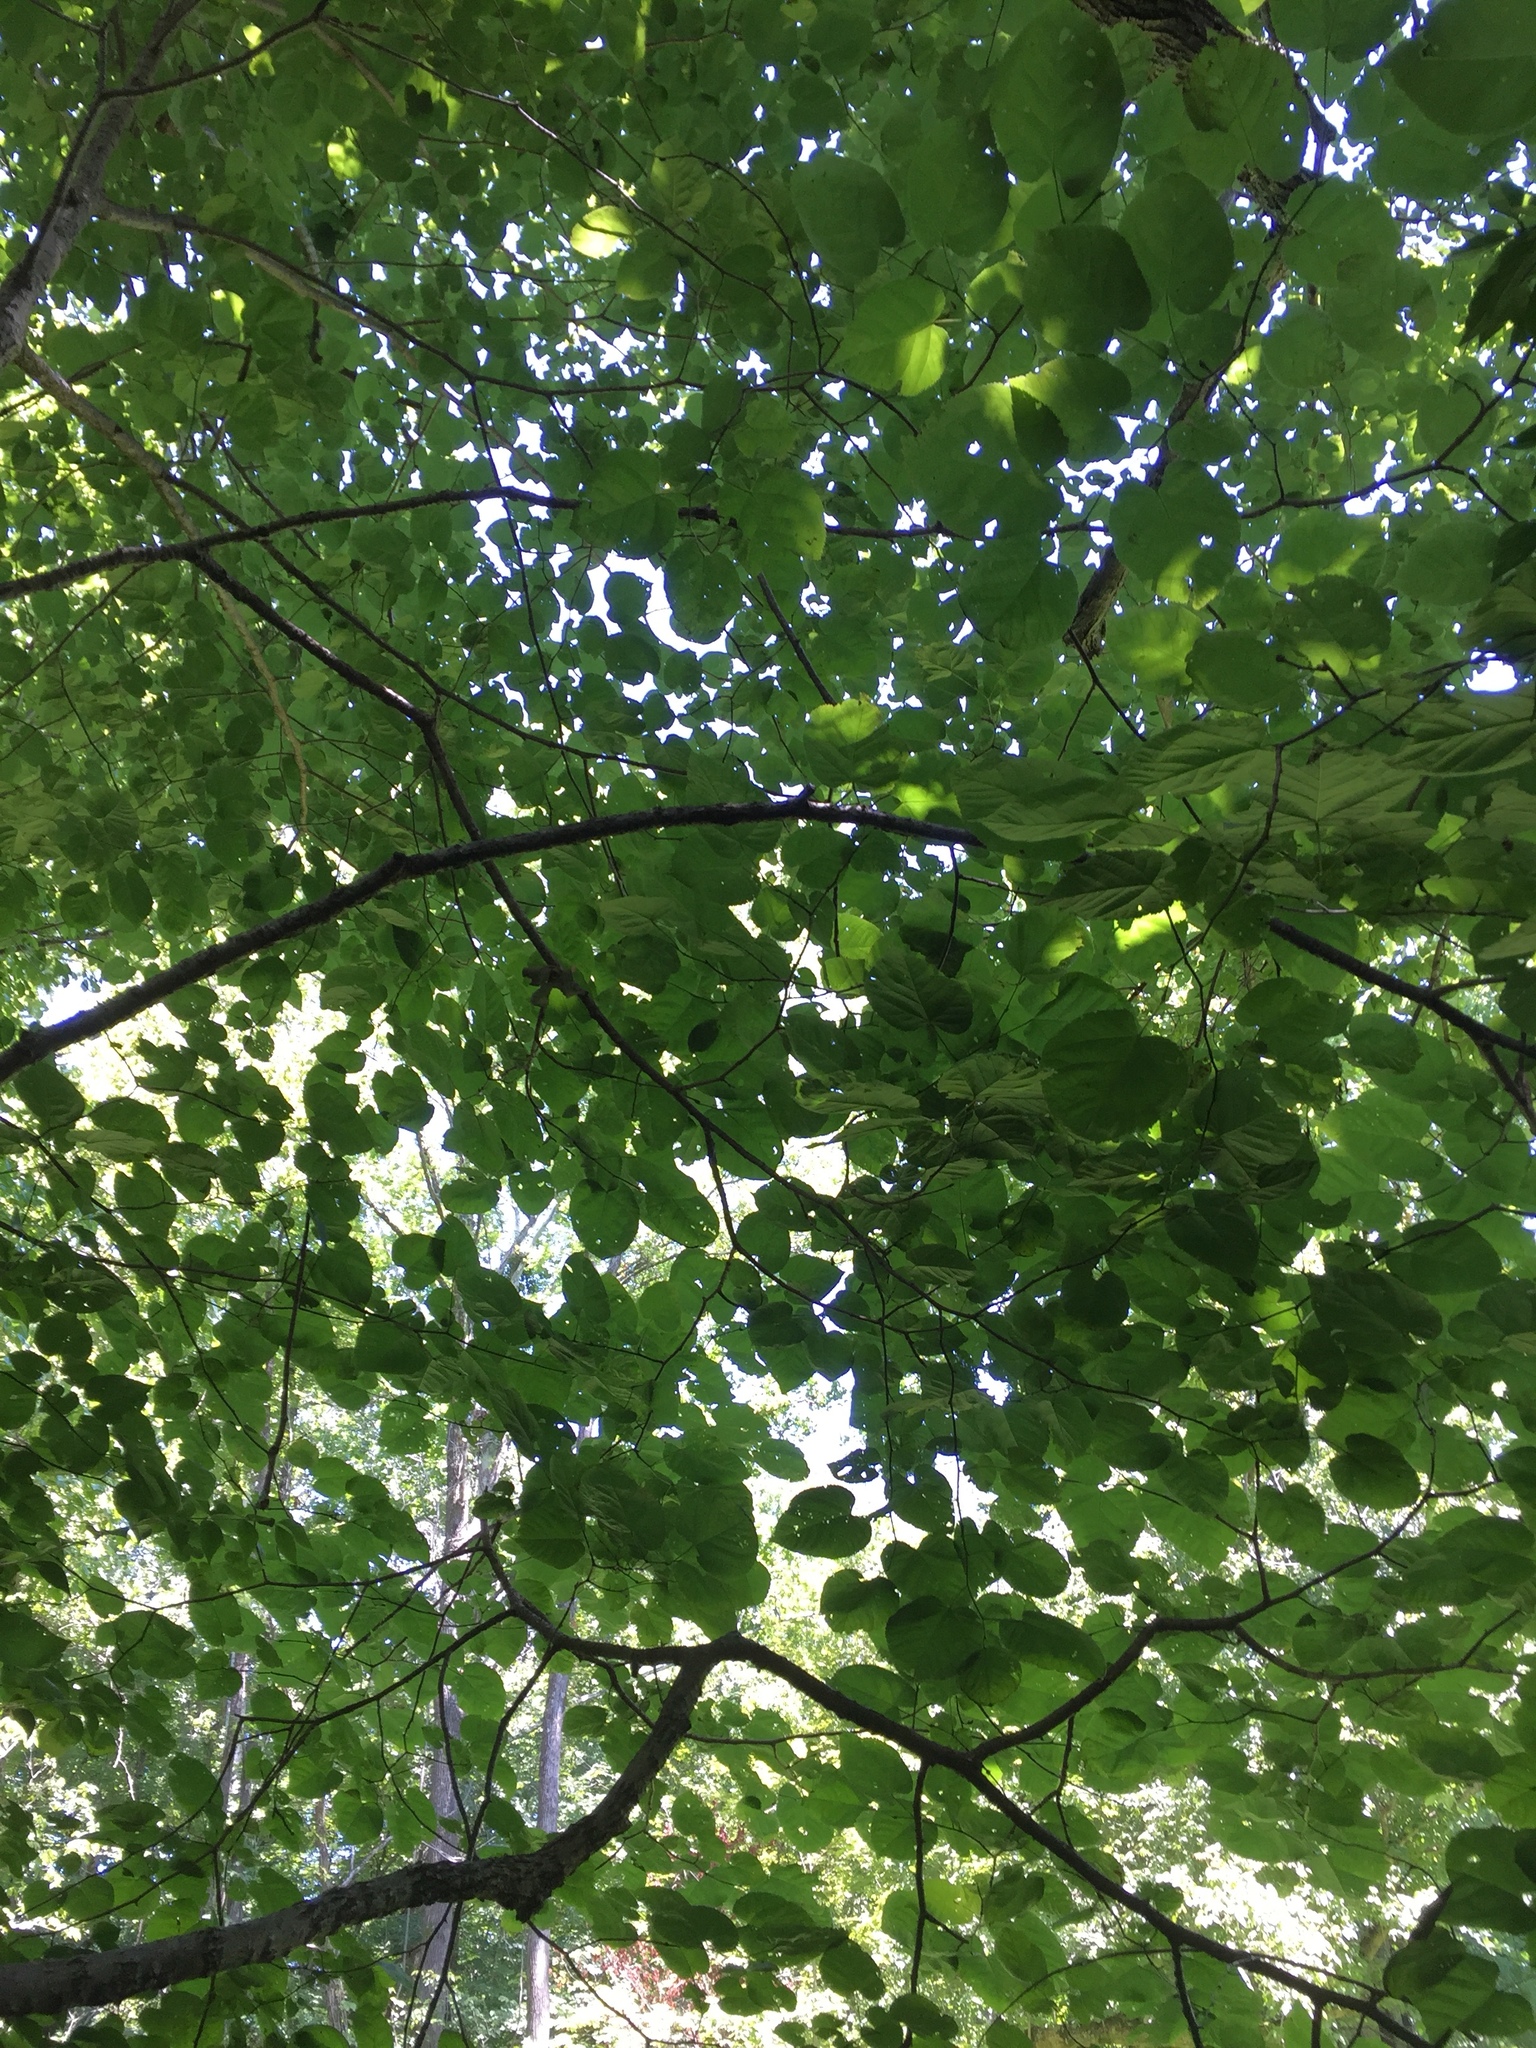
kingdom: Plantae
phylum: Tracheophyta
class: Magnoliopsida
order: Malvales
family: Malvaceae
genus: Tilia
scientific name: Tilia americana
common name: Basswood
